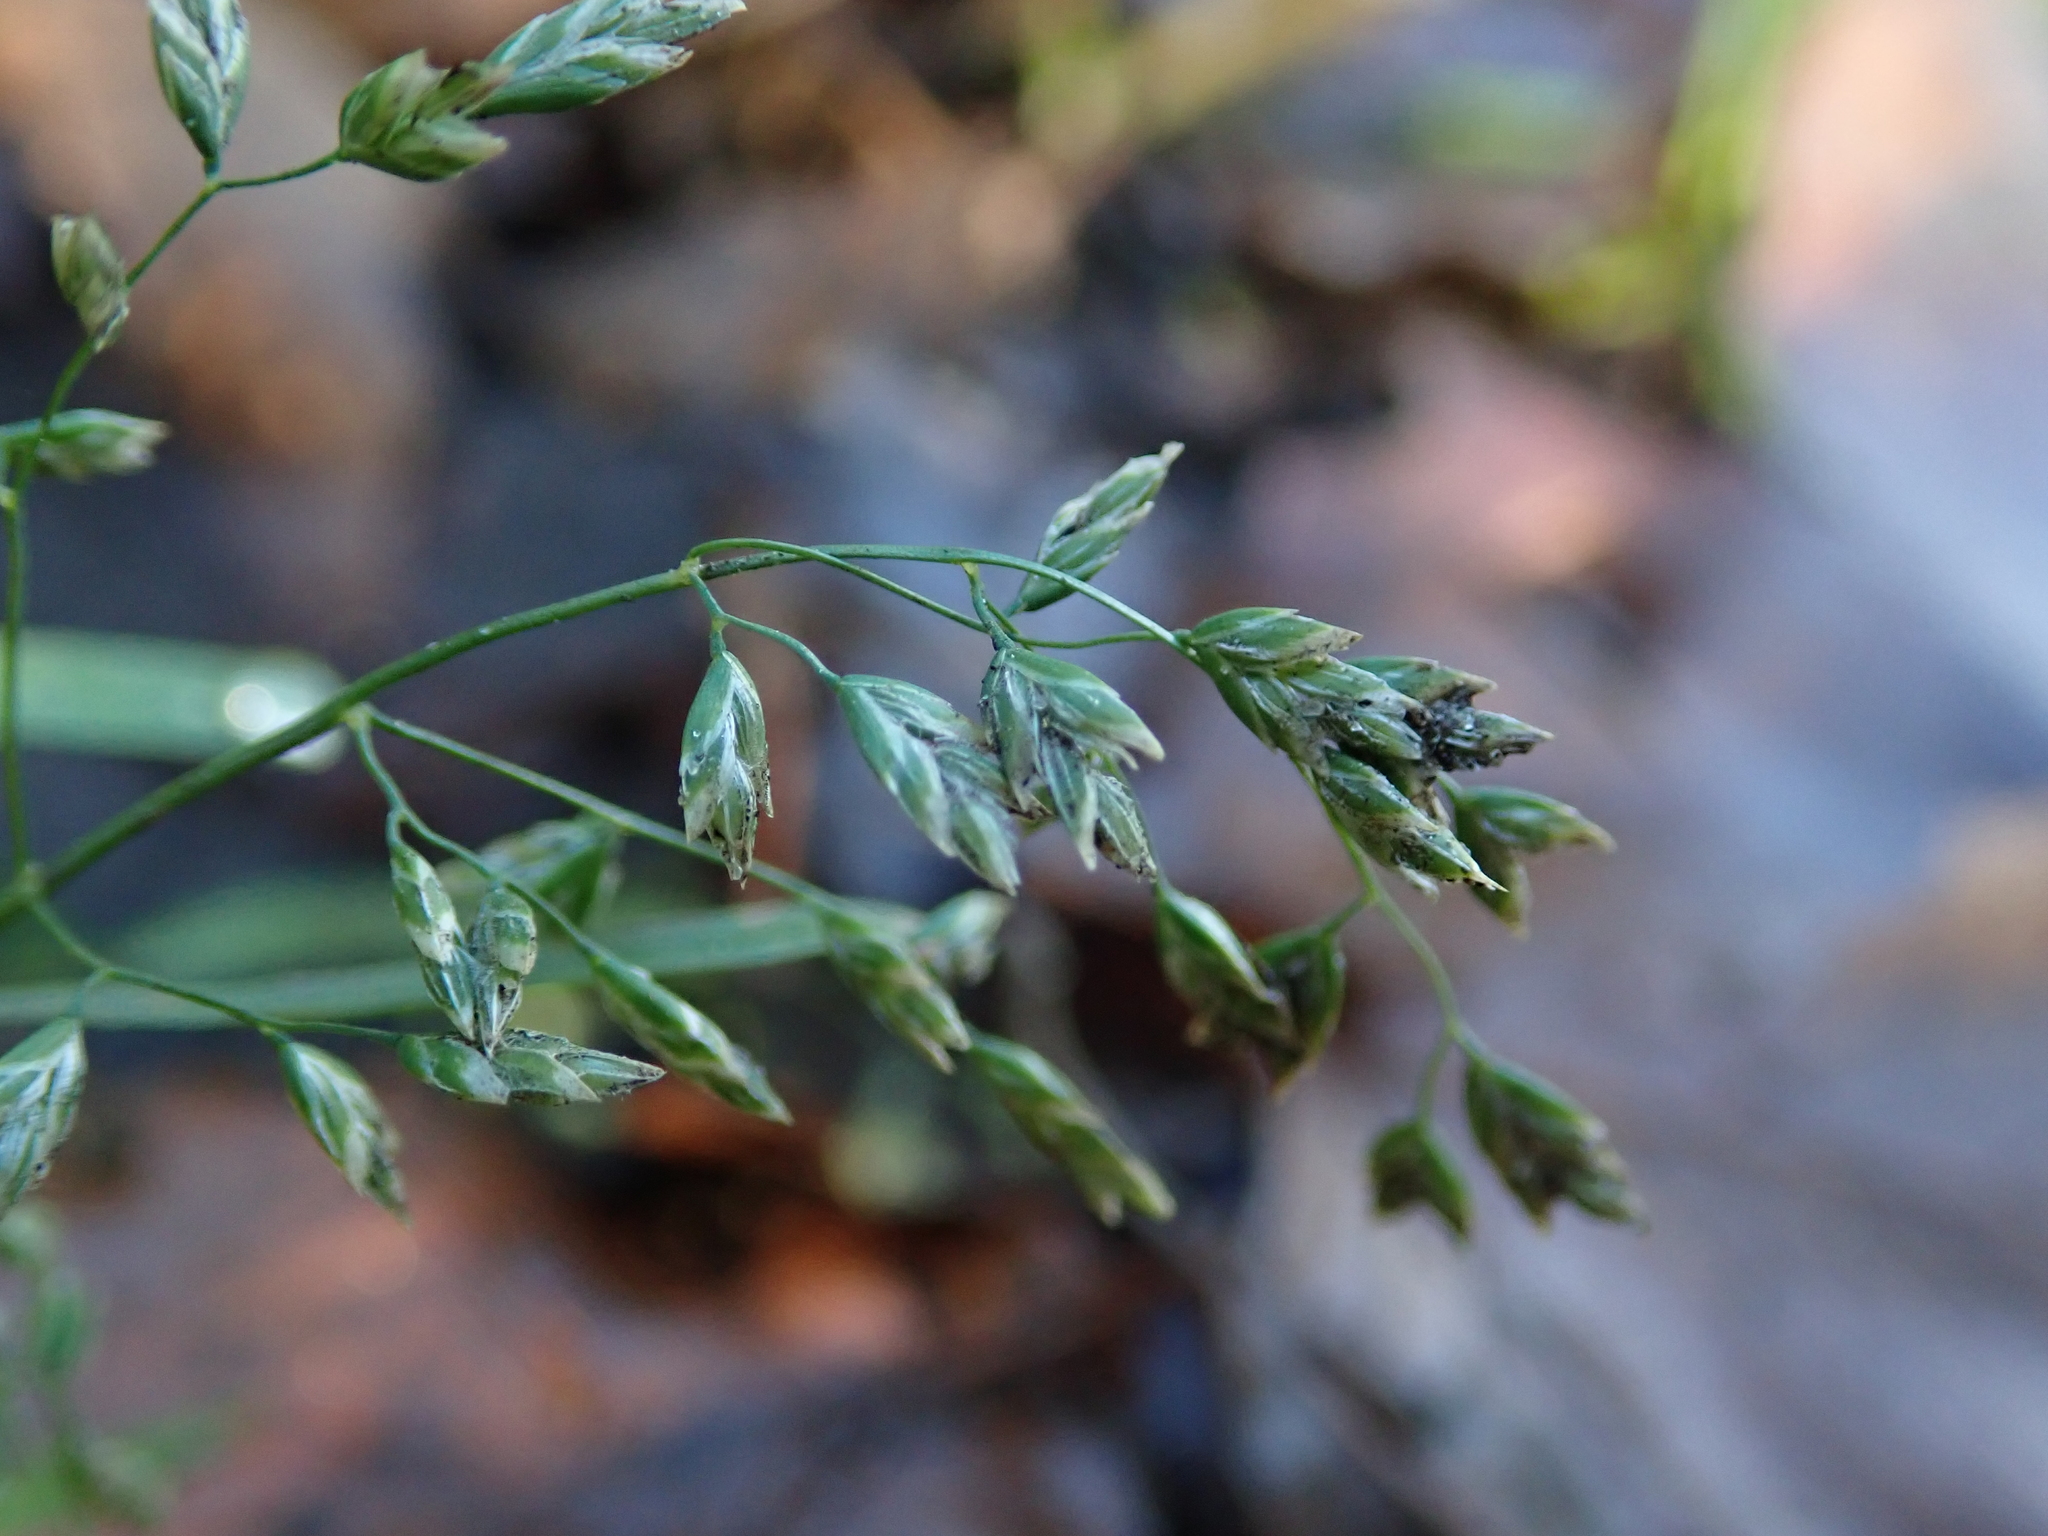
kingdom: Plantae
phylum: Tracheophyta
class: Liliopsida
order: Poales
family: Poaceae
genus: Poa
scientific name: Poa annua
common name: Annual bluegrass
